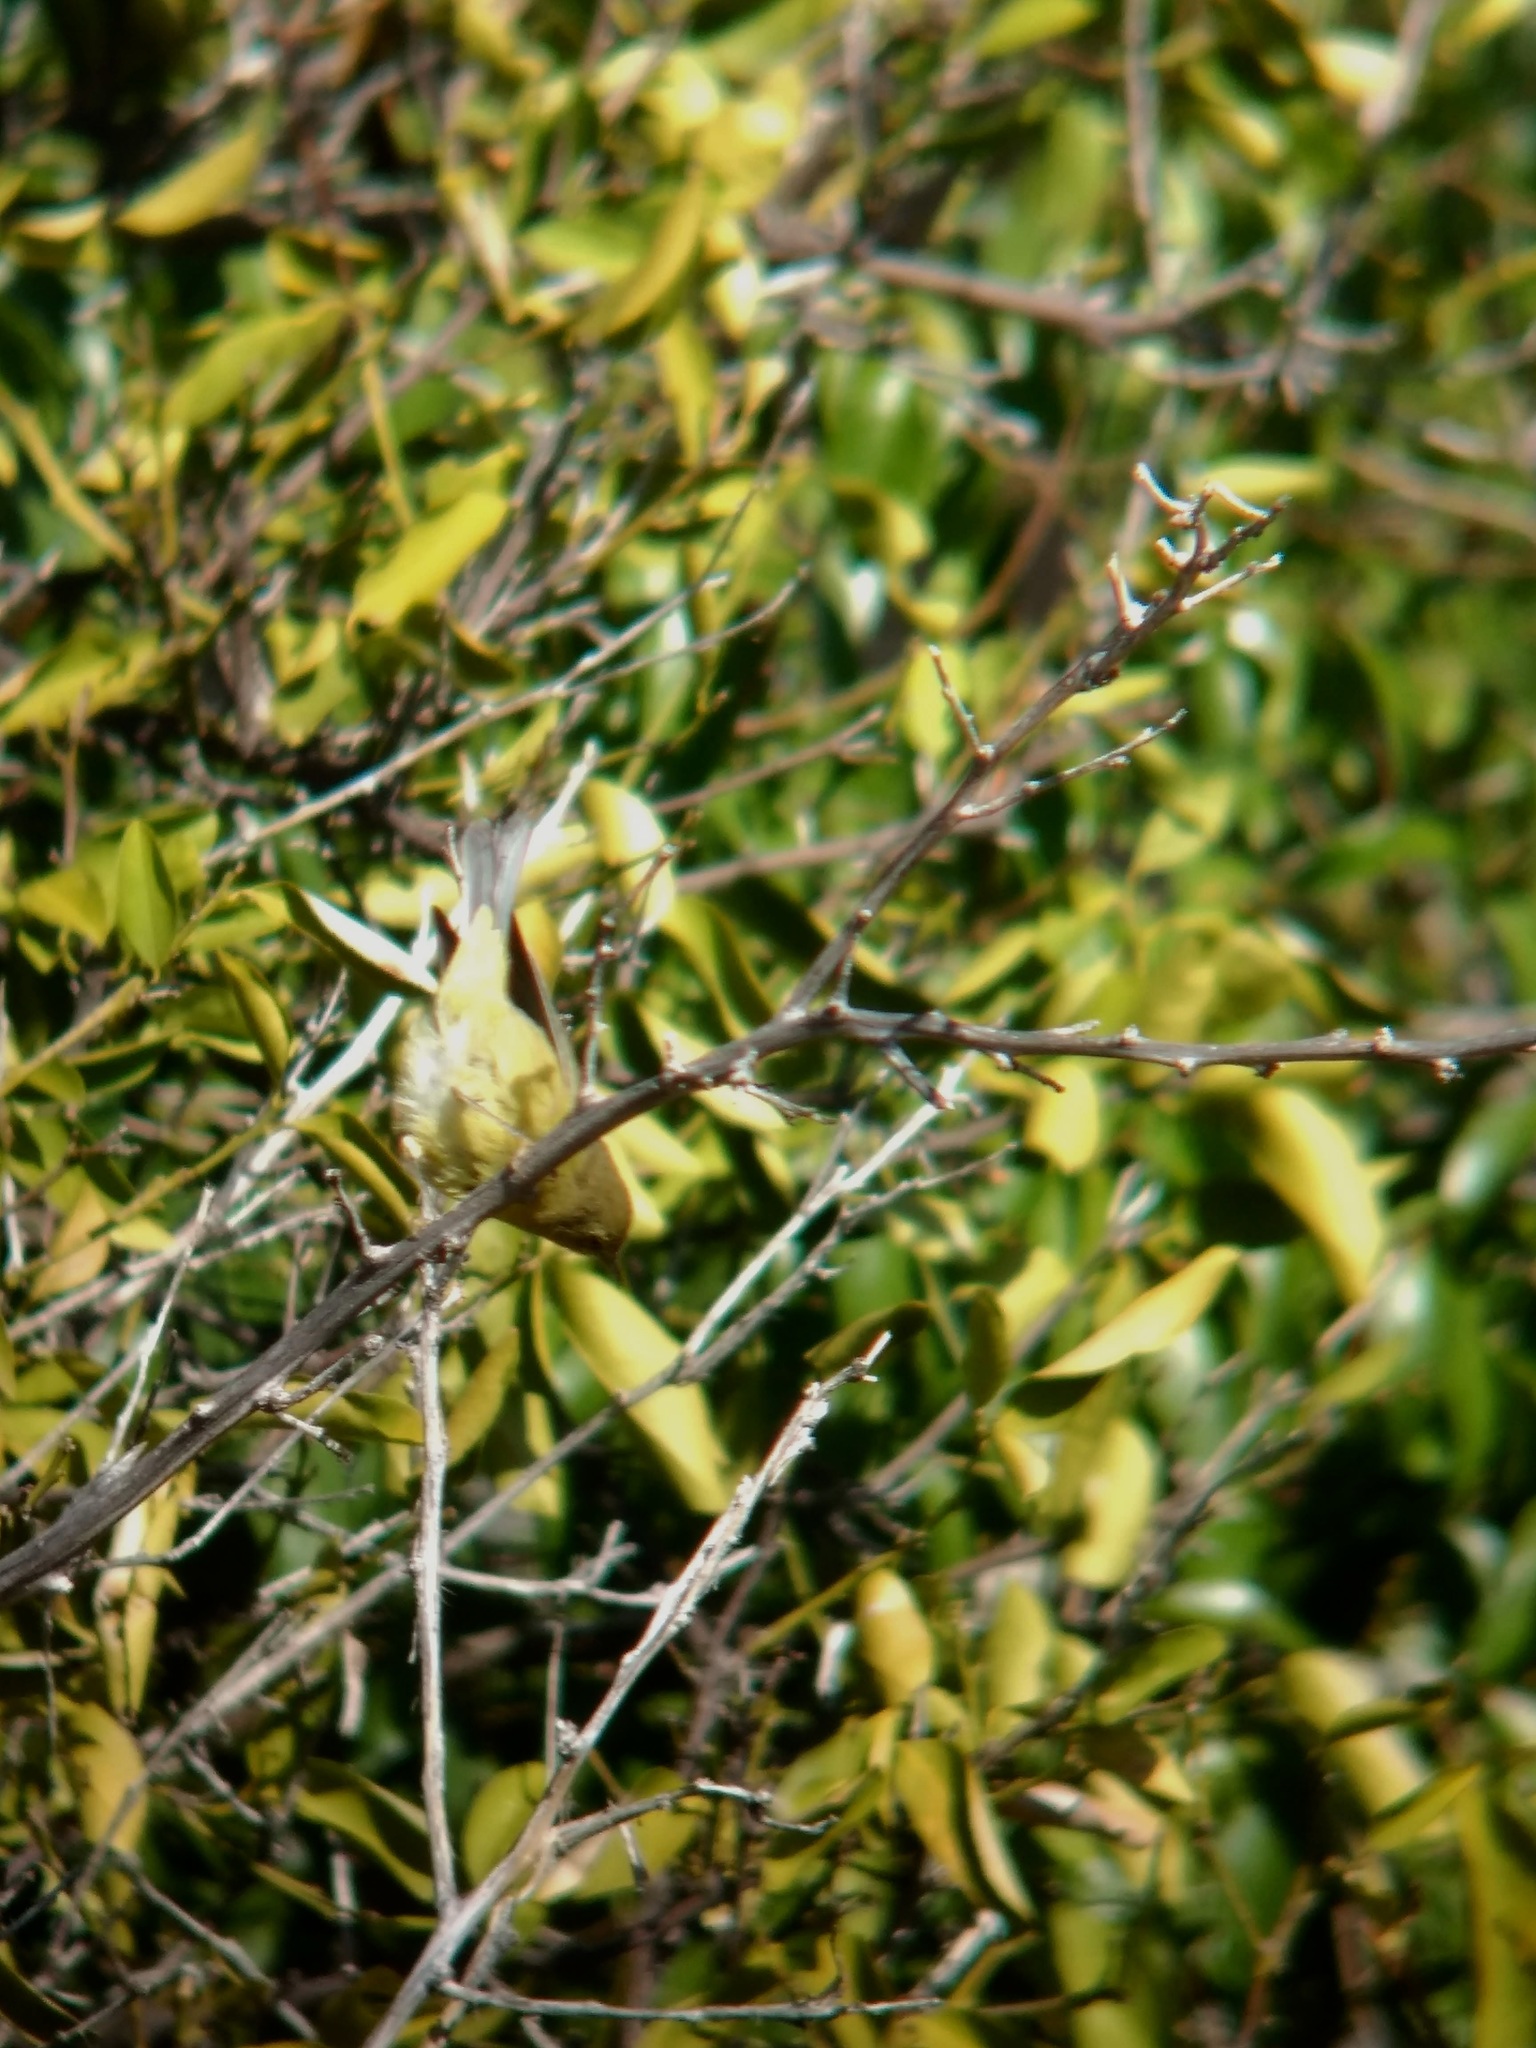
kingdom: Animalia
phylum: Chordata
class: Aves
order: Passeriformes
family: Parulidae
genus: Leiothlypis
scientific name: Leiothlypis celata
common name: Orange-crowned warbler
